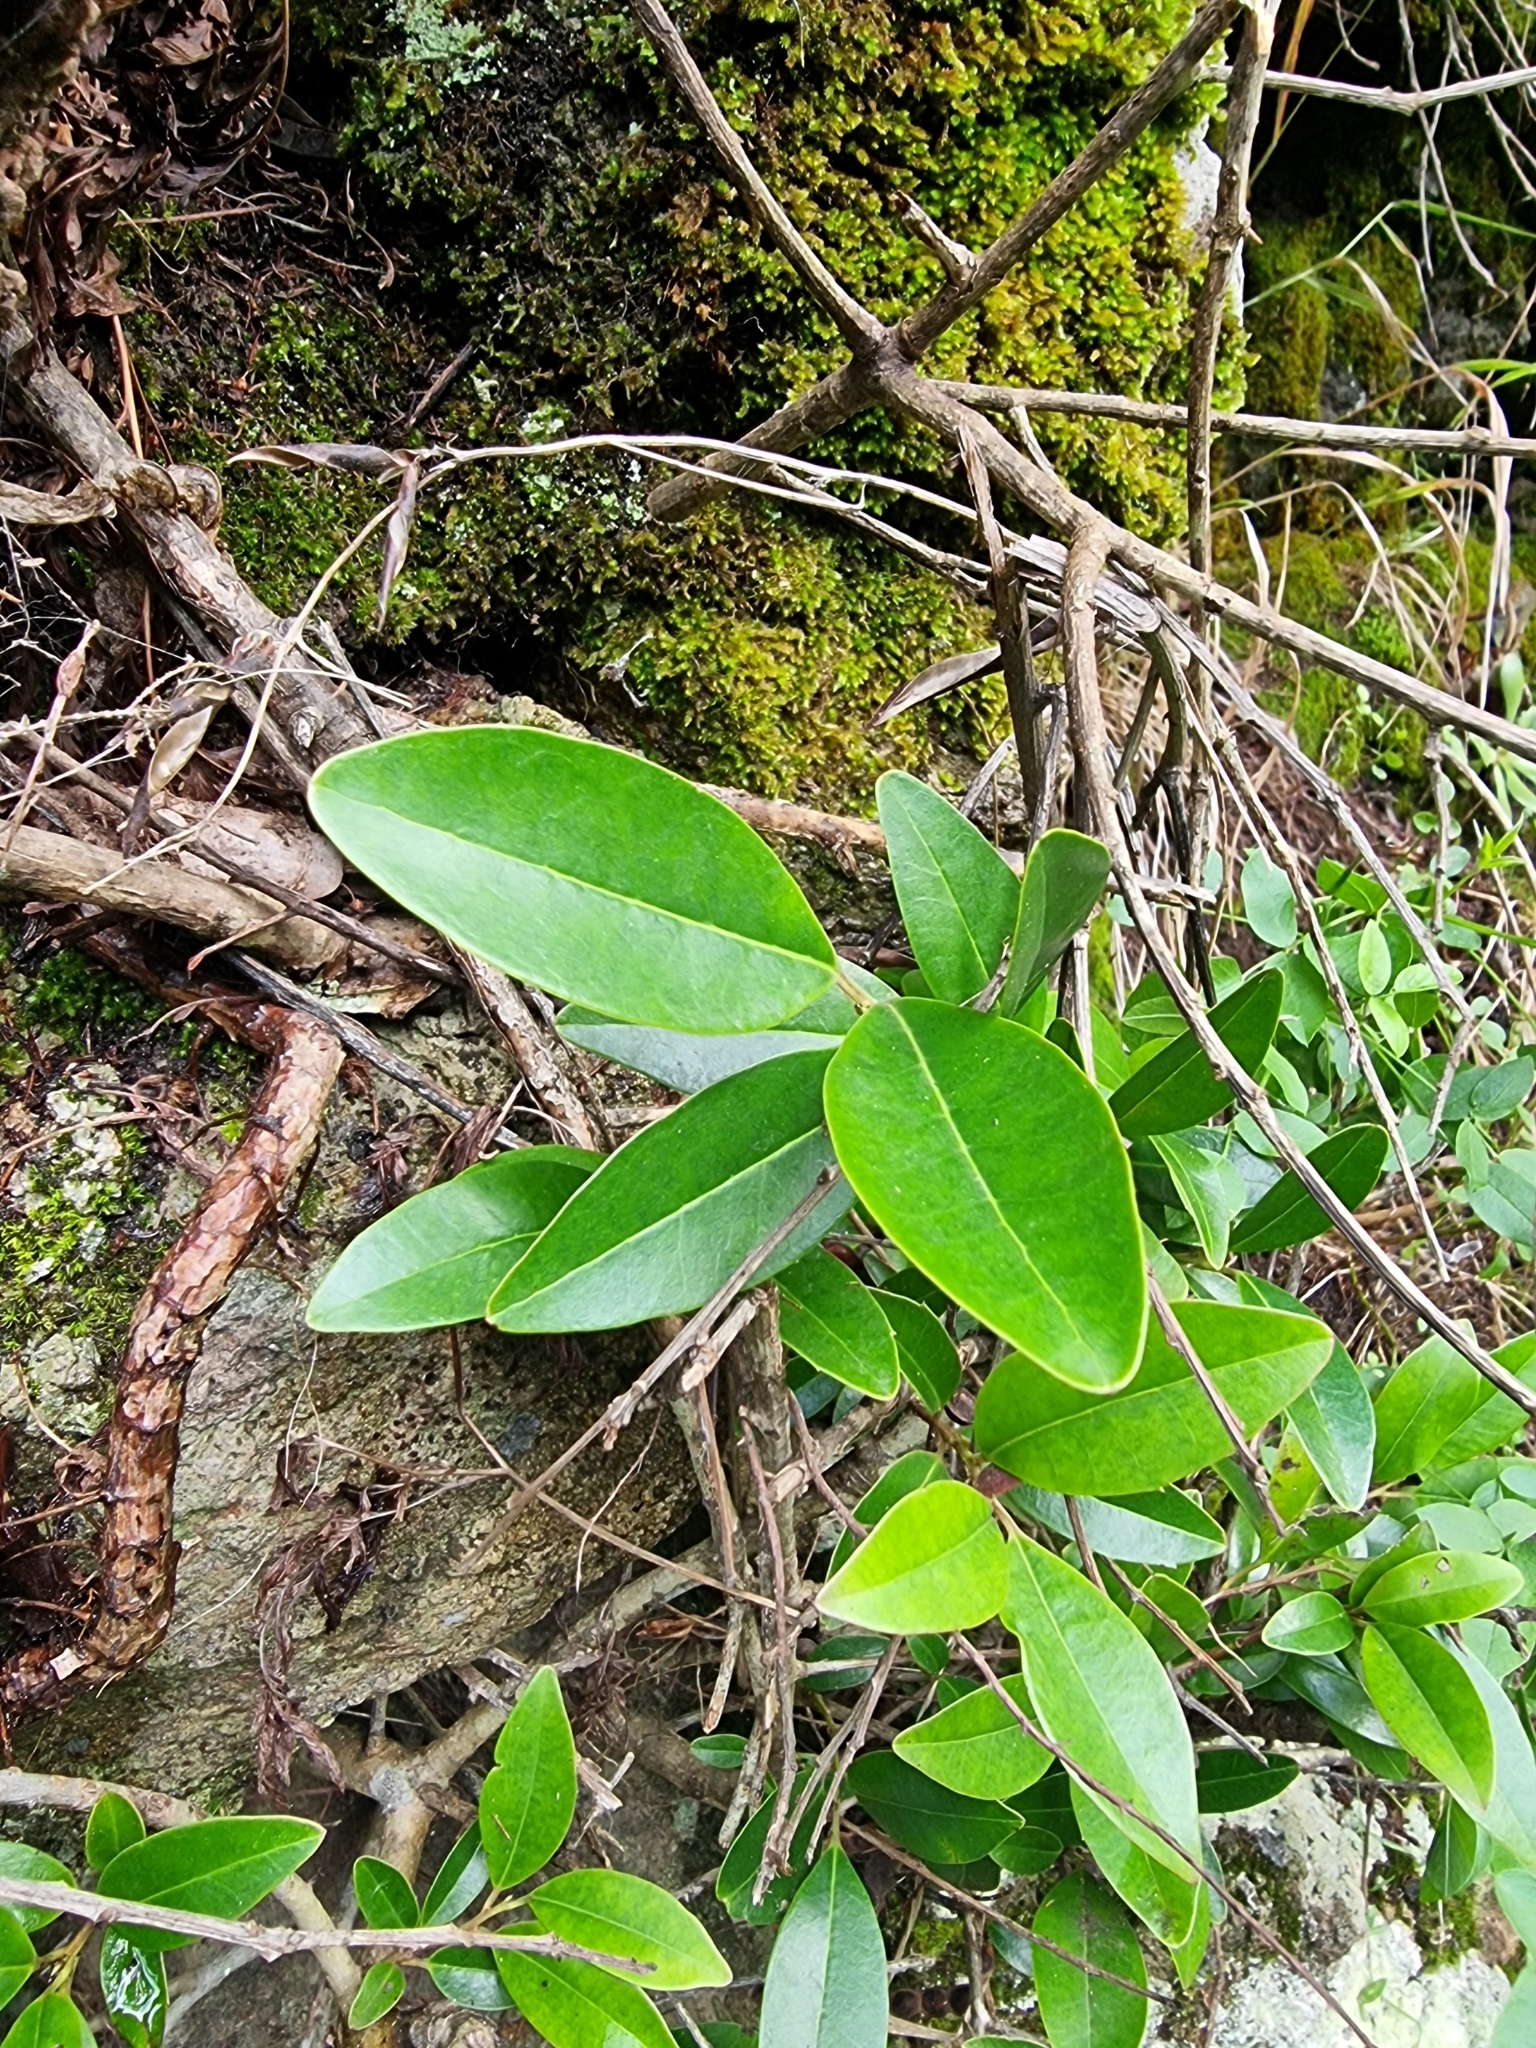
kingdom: Plantae
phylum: Tracheophyta
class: Magnoliopsida
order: Aquifoliales
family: Aquifoliaceae
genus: Ilex
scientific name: Ilex canariensis
